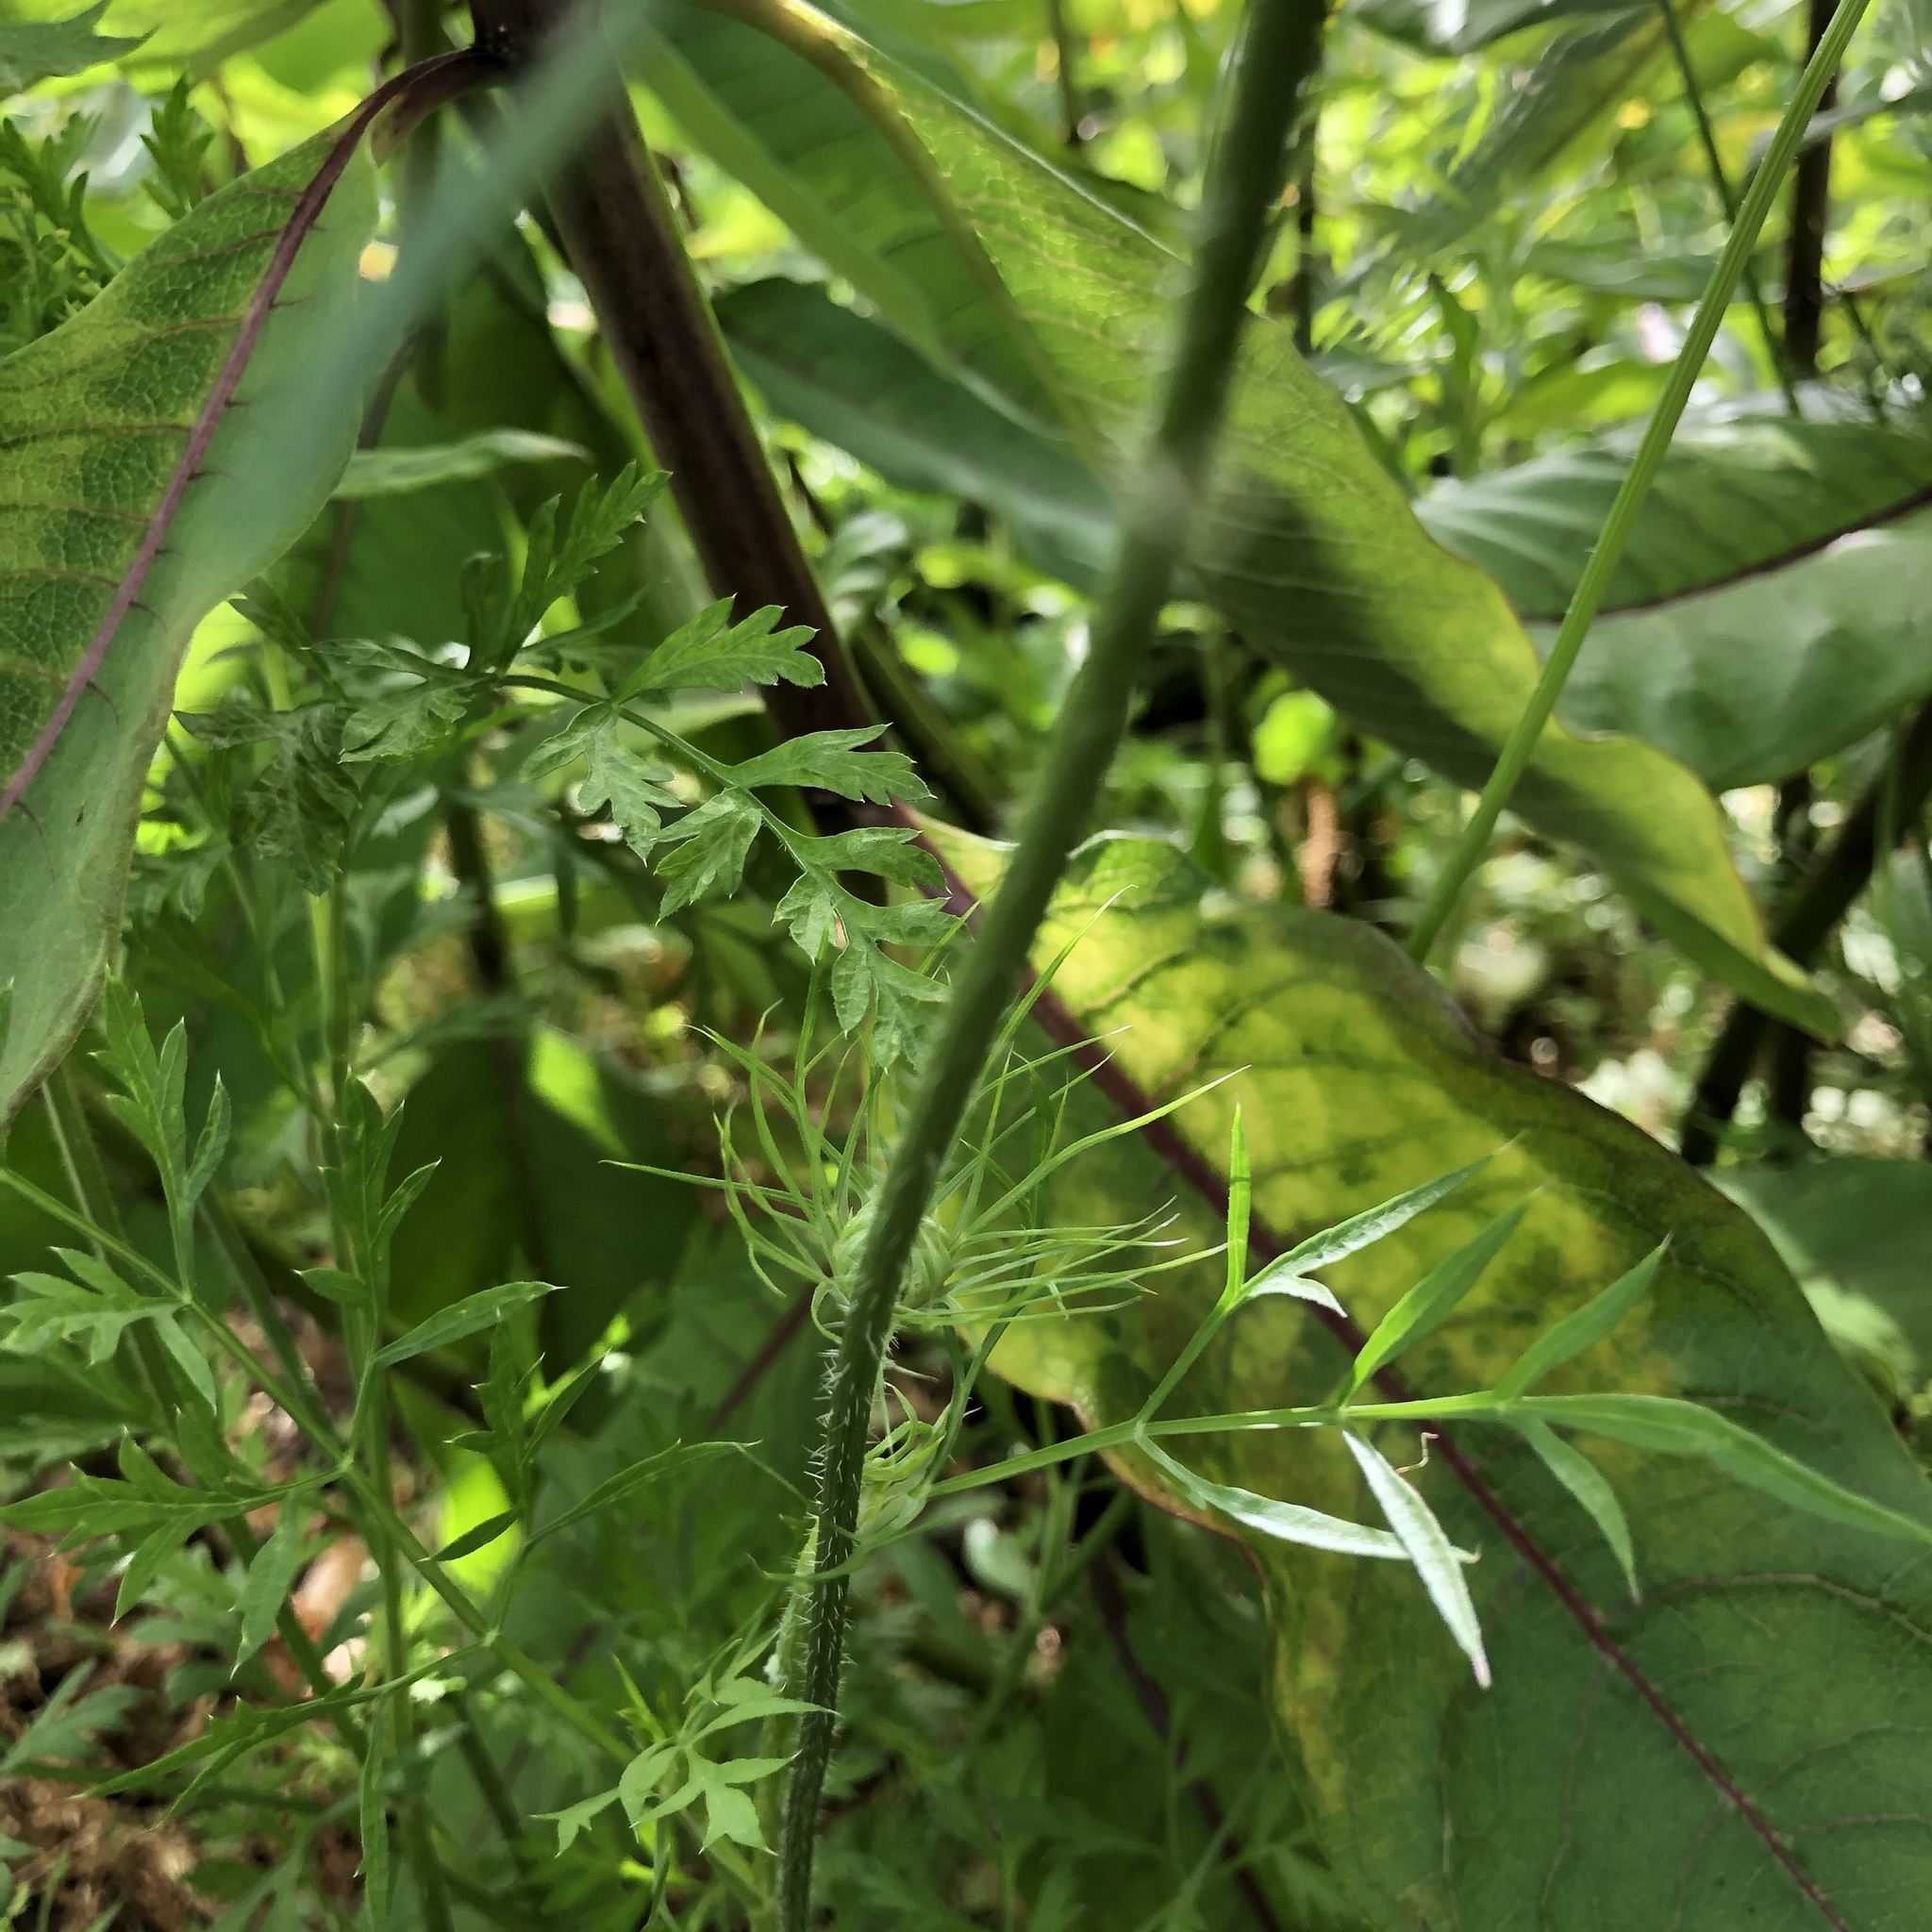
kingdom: Plantae
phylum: Tracheophyta
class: Magnoliopsida
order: Apiales
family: Apiaceae
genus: Daucus
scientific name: Daucus carota
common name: Wild carrot
